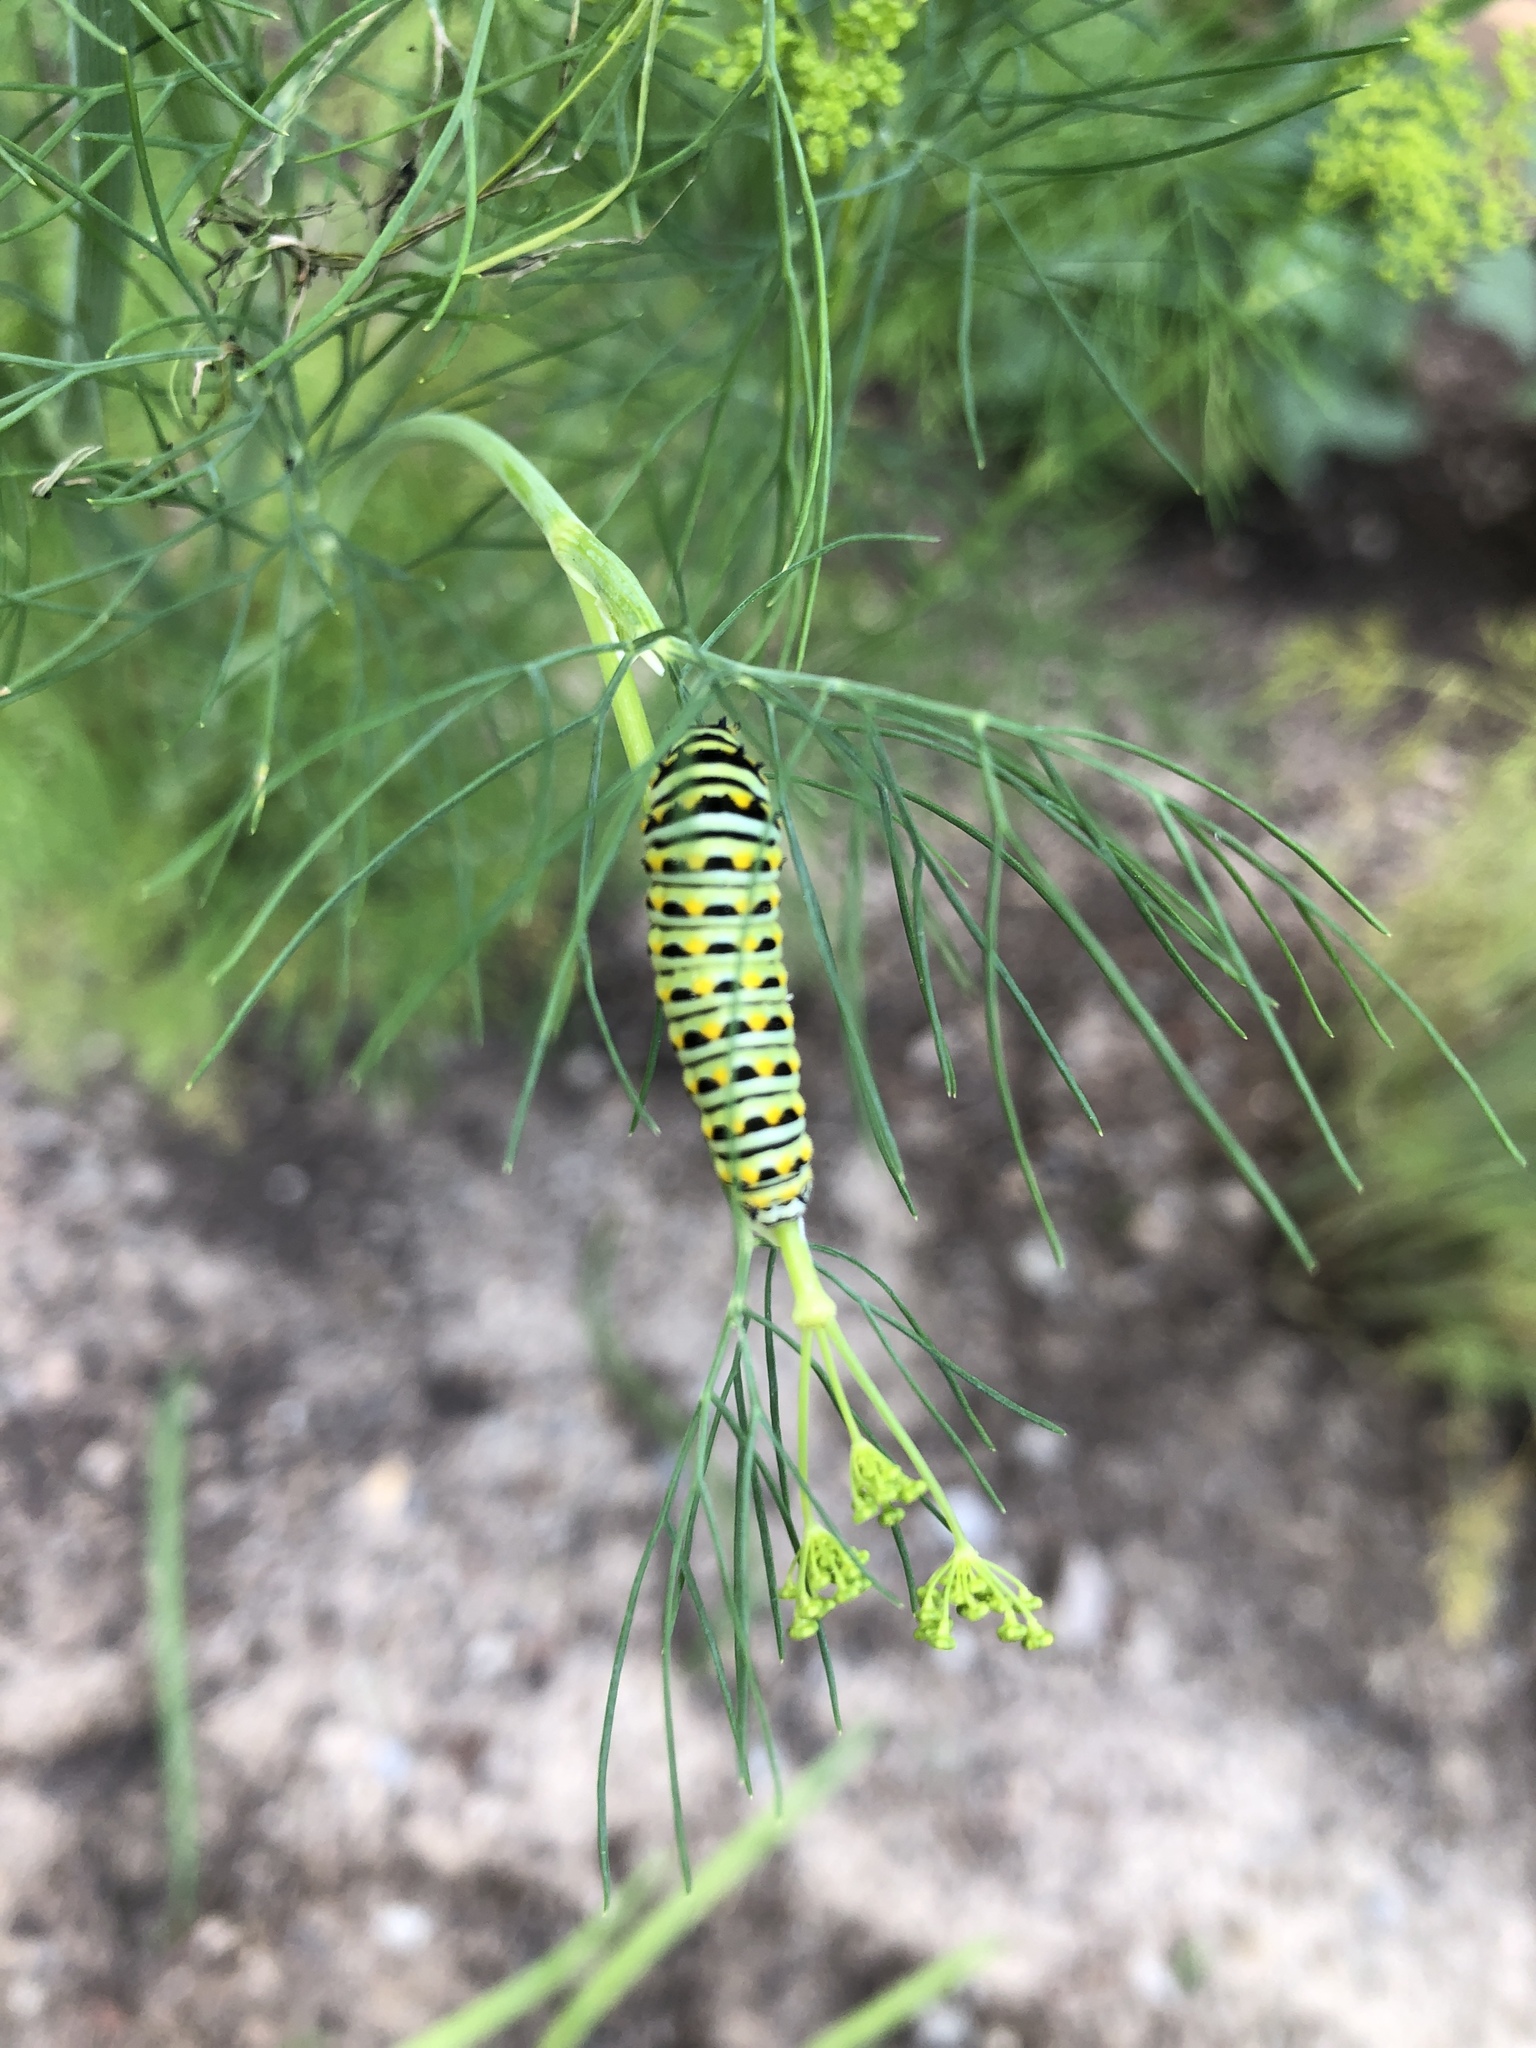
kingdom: Animalia
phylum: Arthropoda
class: Insecta
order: Lepidoptera
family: Papilionidae
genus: Papilio
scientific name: Papilio polyxenes
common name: Black swallowtail
